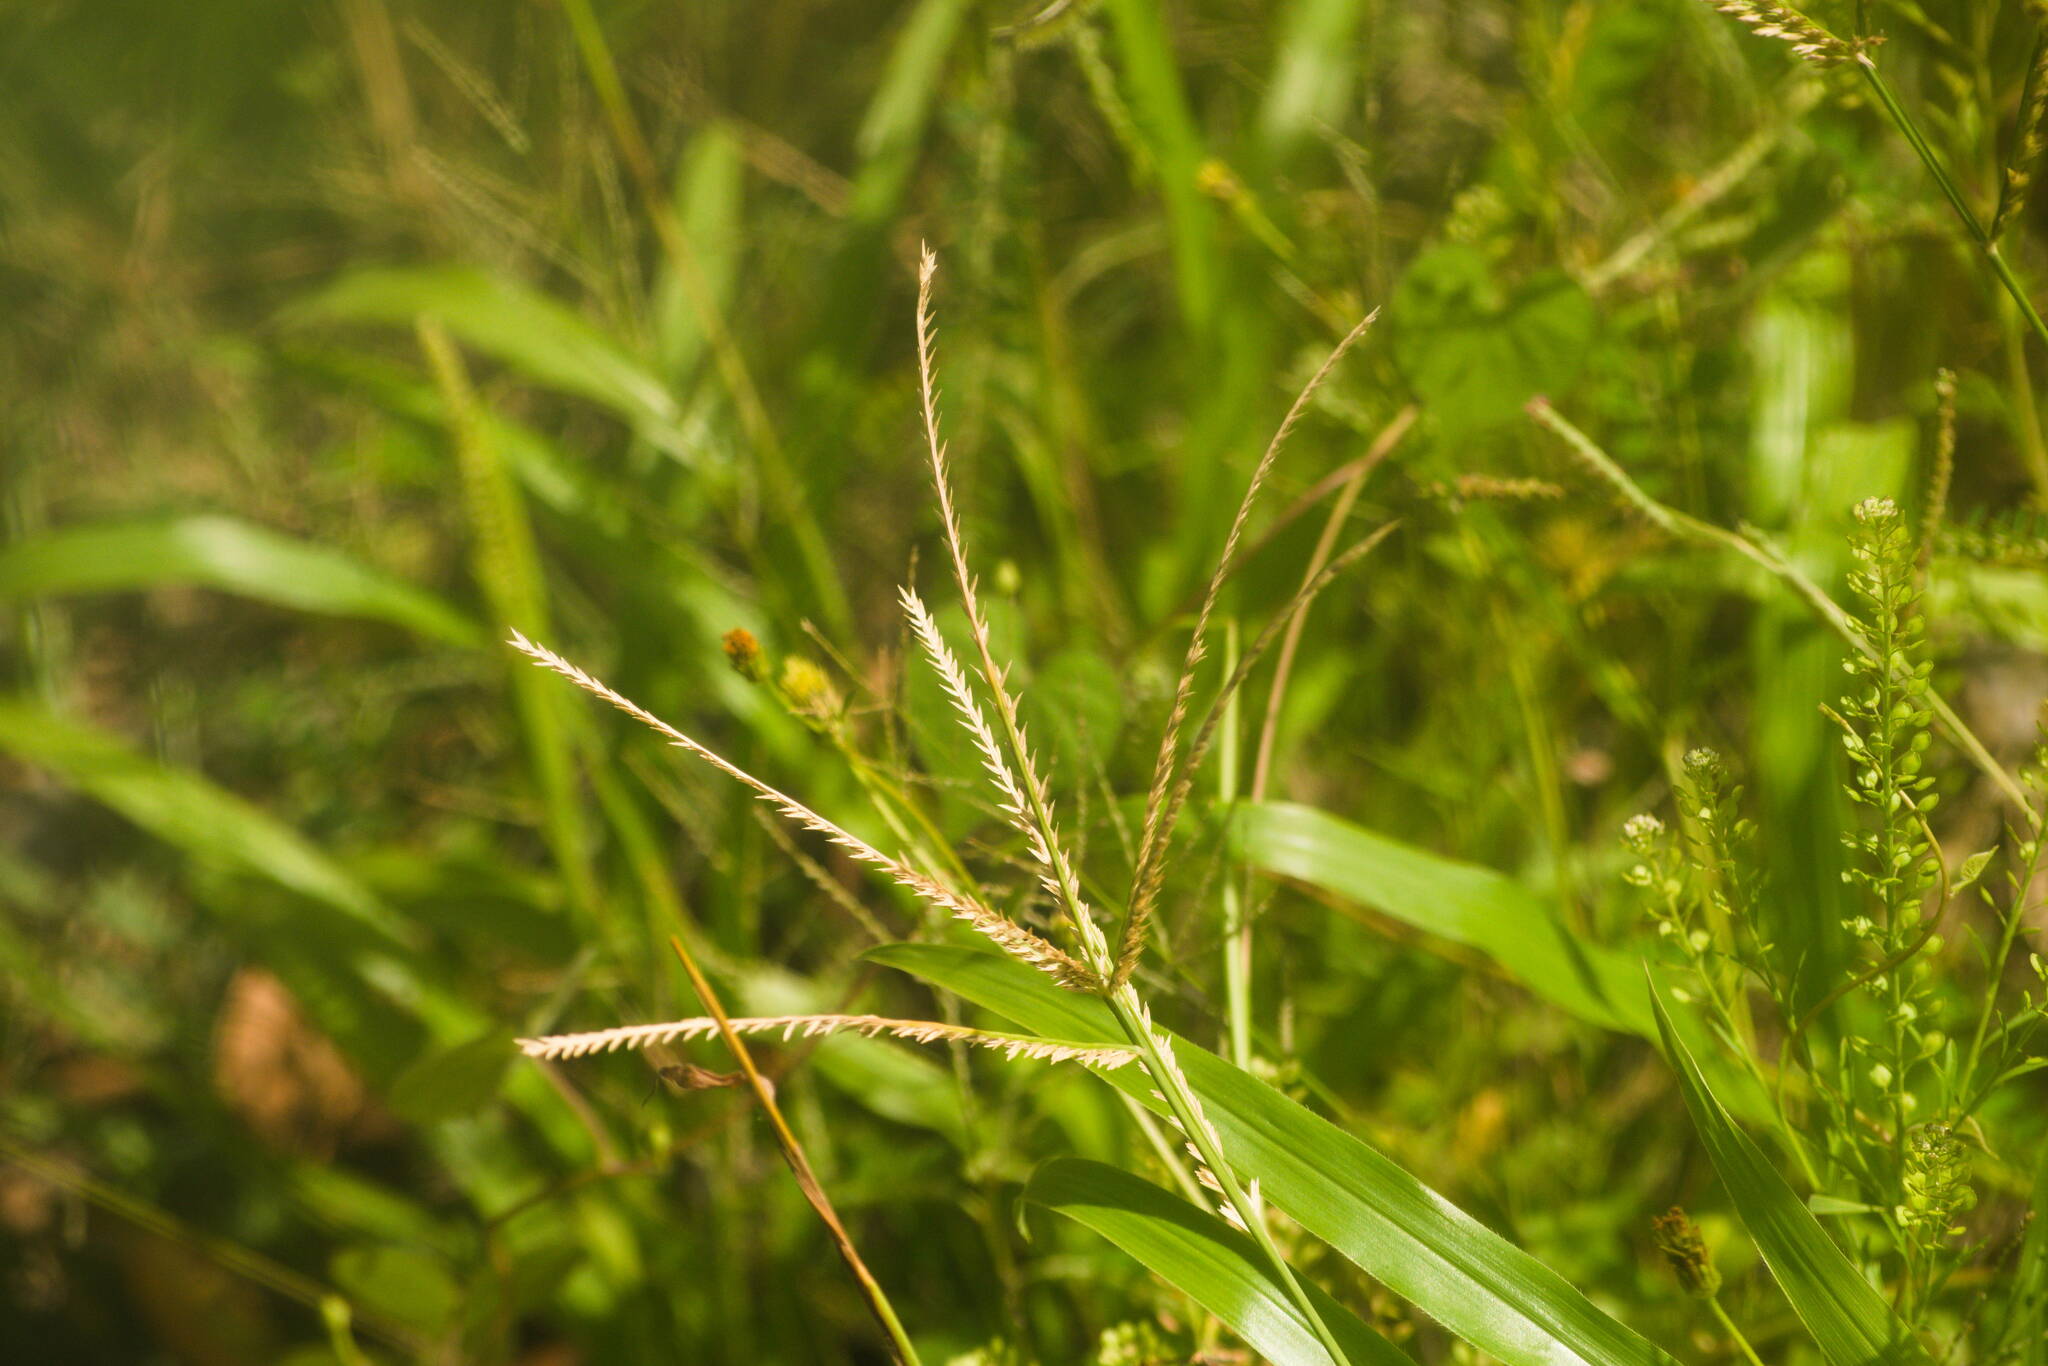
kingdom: Plantae
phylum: Tracheophyta
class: Liliopsida
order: Poales
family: Poaceae
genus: Eleusine
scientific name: Eleusine indica
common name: Yard-grass
